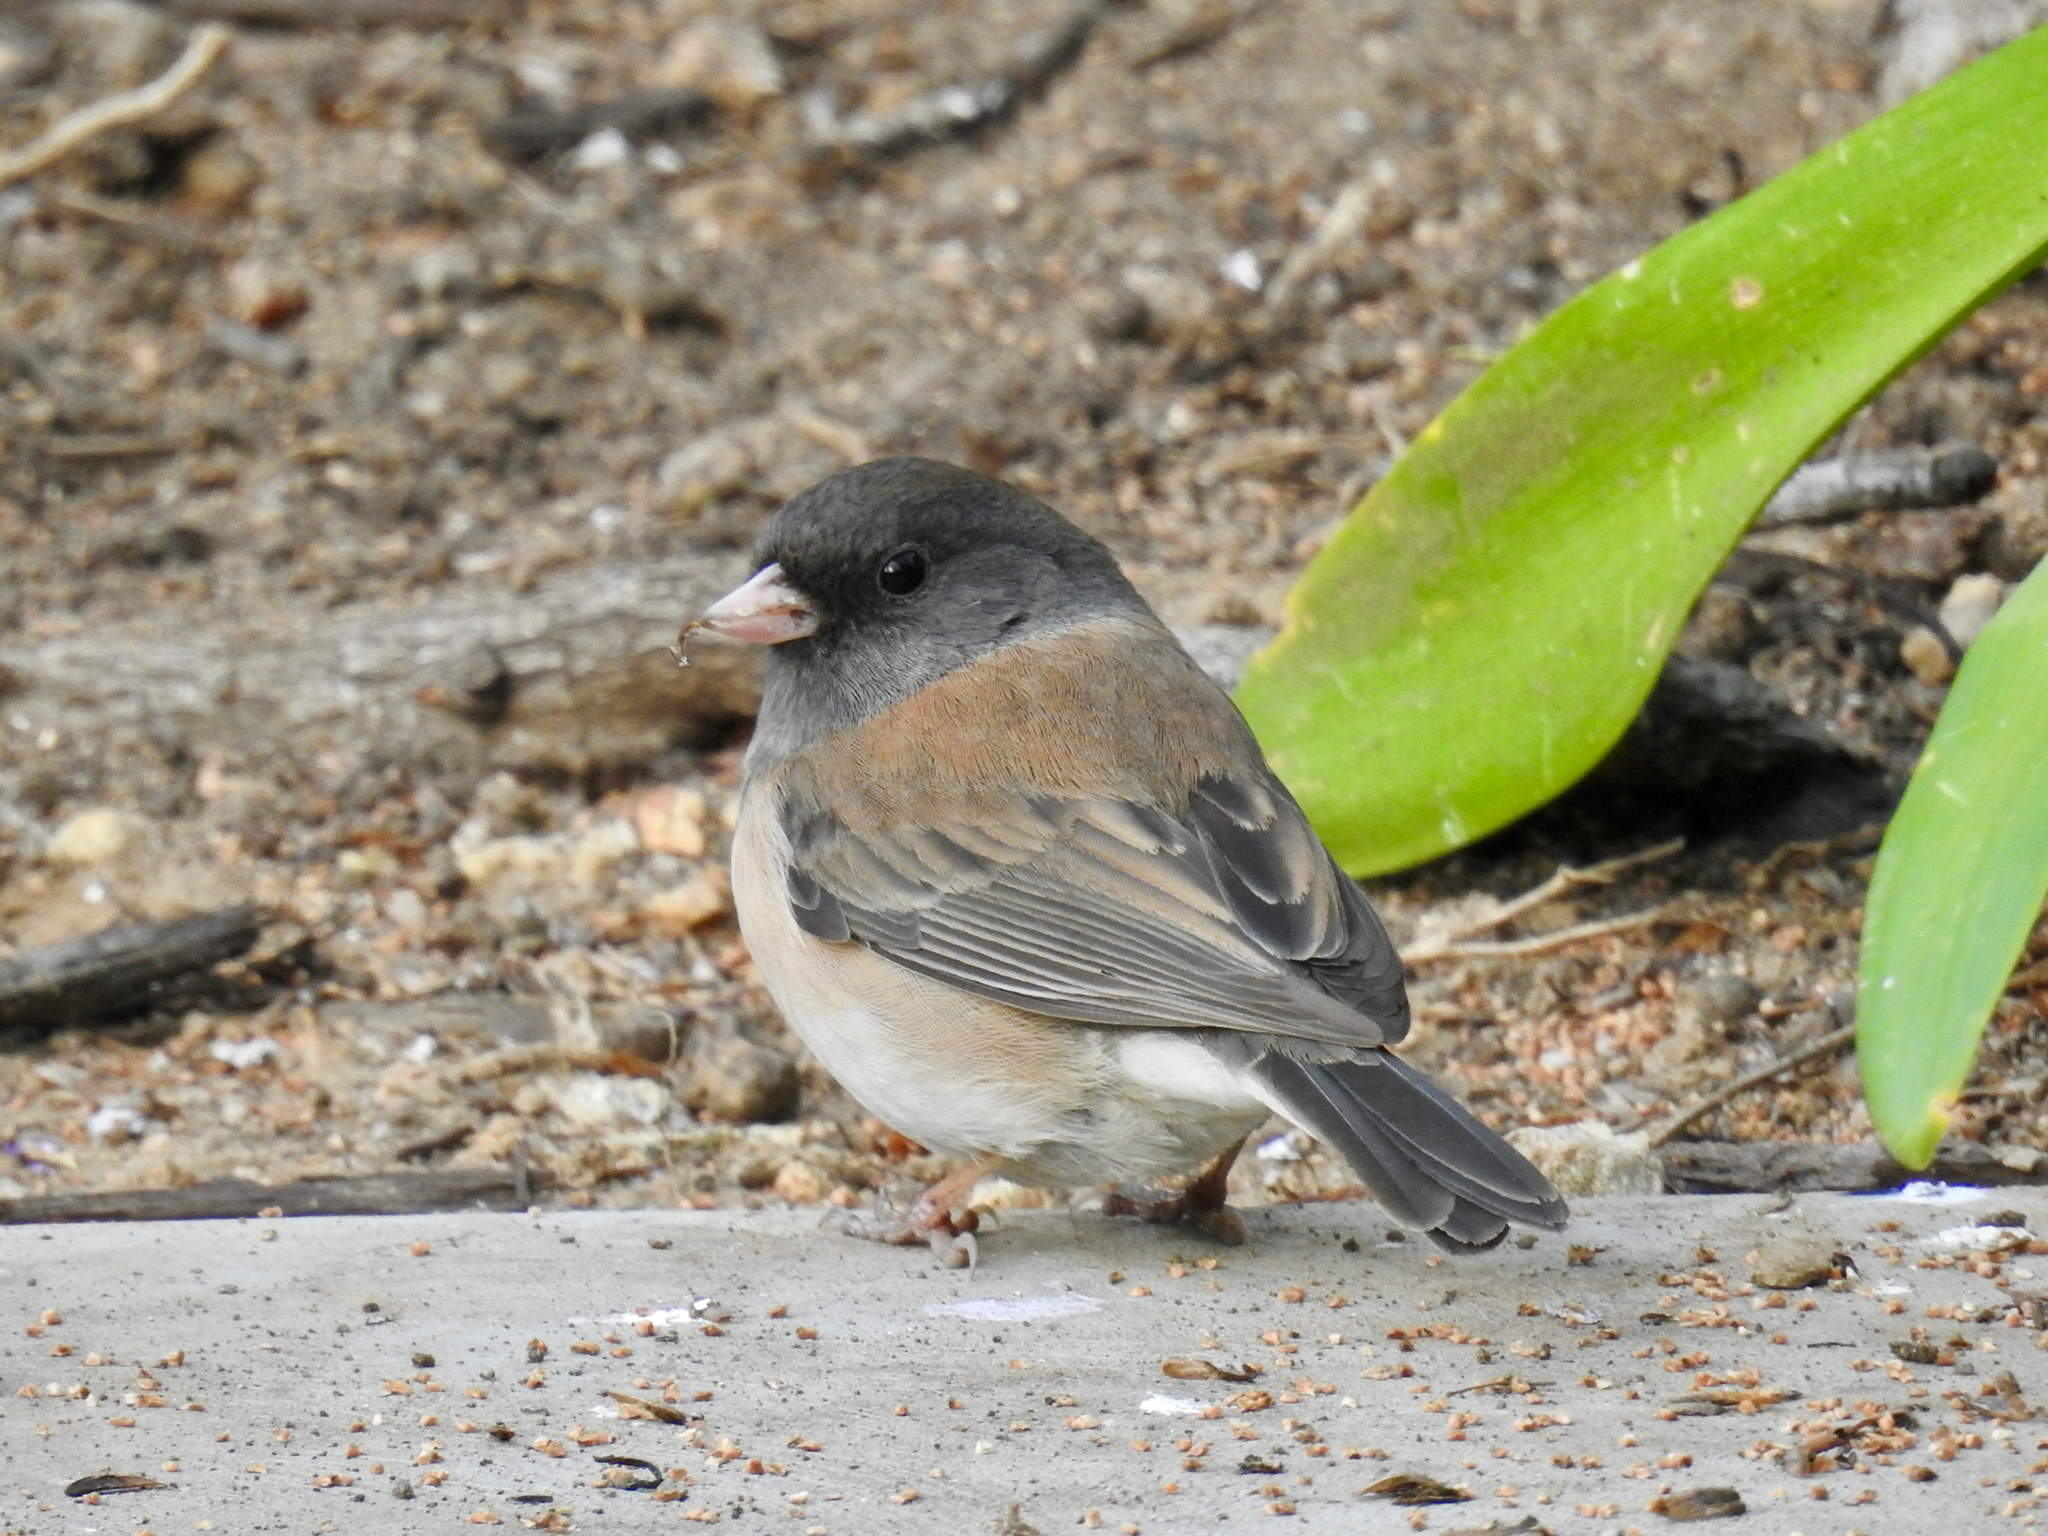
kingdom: Animalia
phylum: Chordata
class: Aves
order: Passeriformes
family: Passerellidae
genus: Junco
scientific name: Junco hyemalis
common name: Dark-eyed junco
